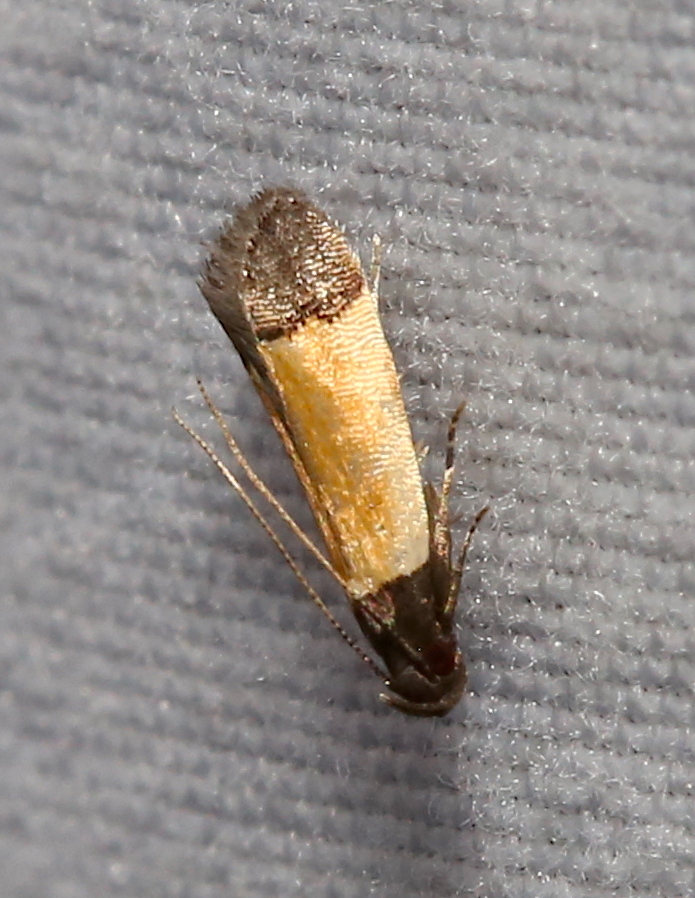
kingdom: Animalia
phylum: Arthropoda
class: Insecta
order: Lepidoptera
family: Gelechiidae
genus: Anacampsis
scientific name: Anacampsis coverdalella
